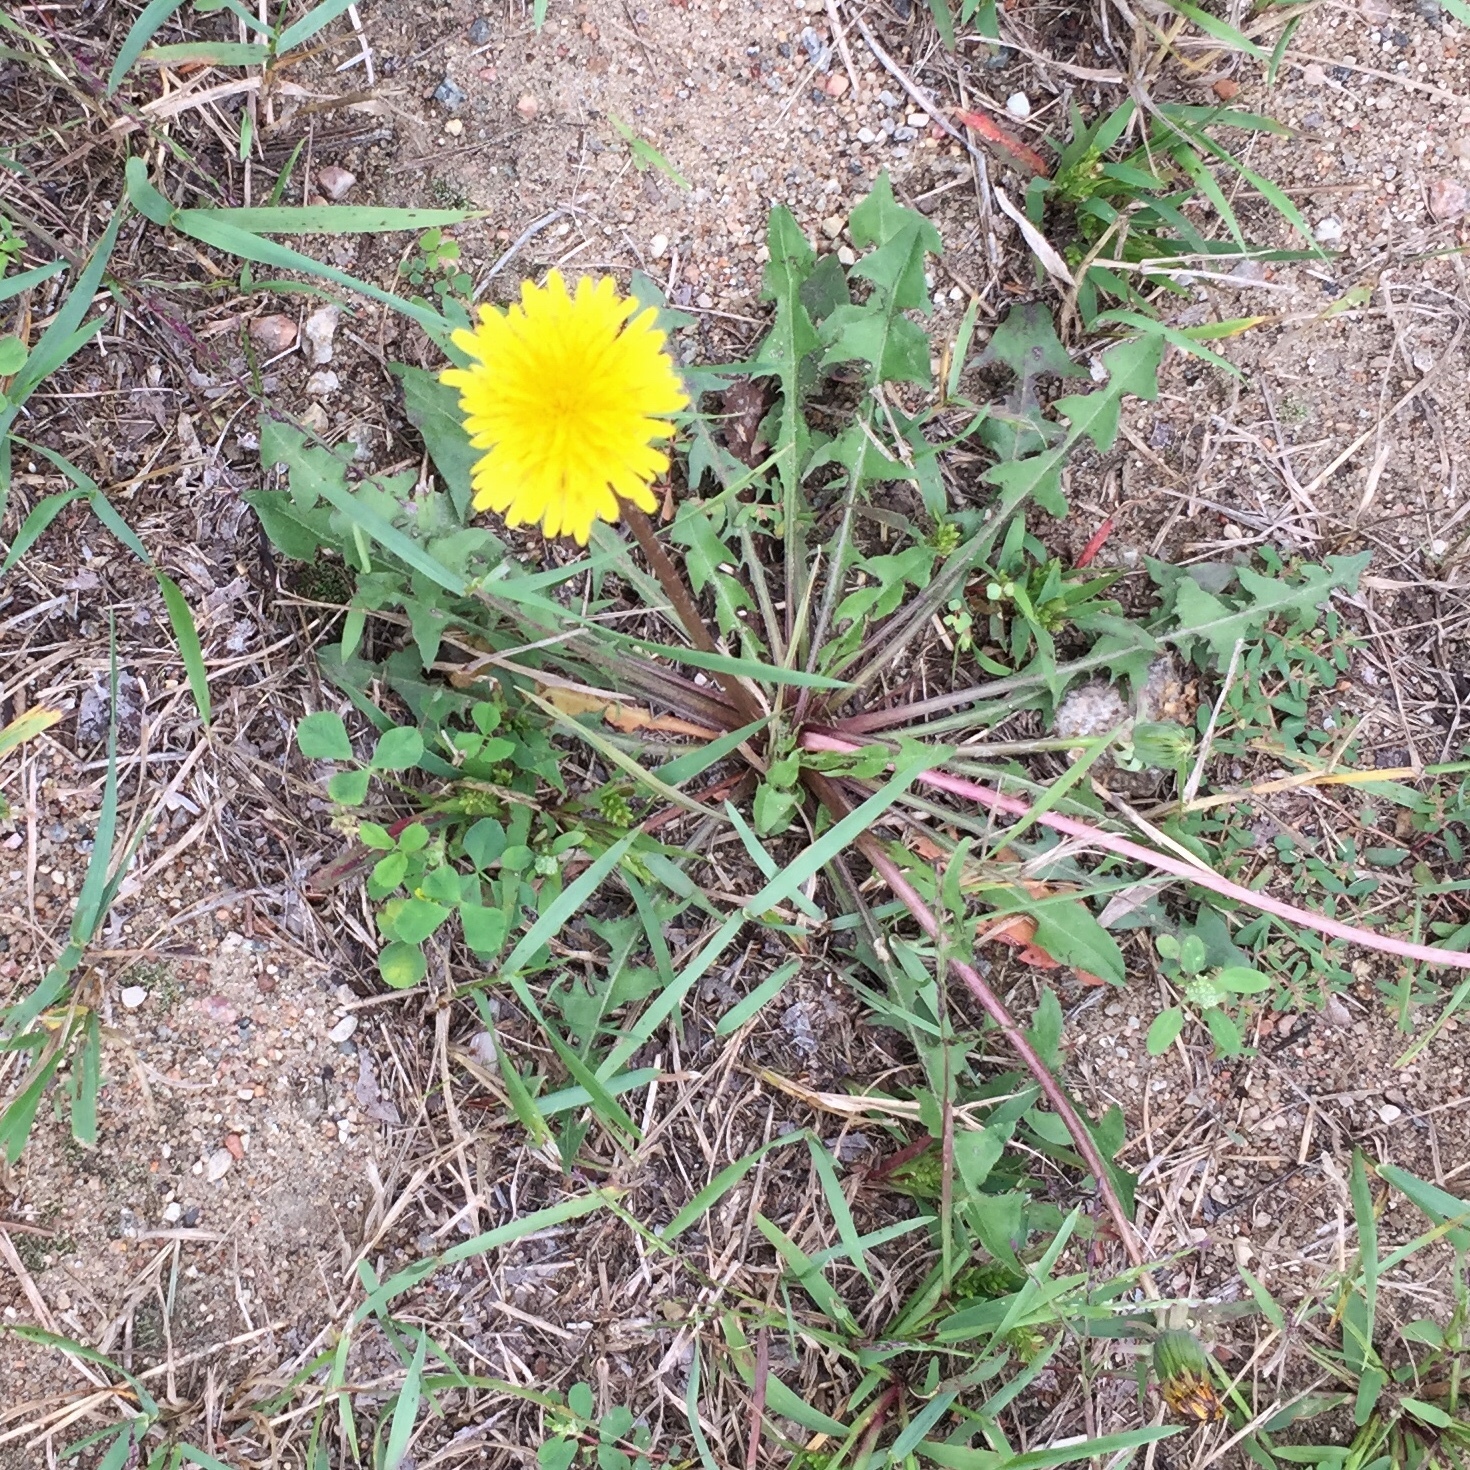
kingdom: Plantae
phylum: Tracheophyta
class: Magnoliopsida
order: Asterales
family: Asteraceae
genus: Taraxacum
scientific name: Taraxacum officinale
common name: Common dandelion
